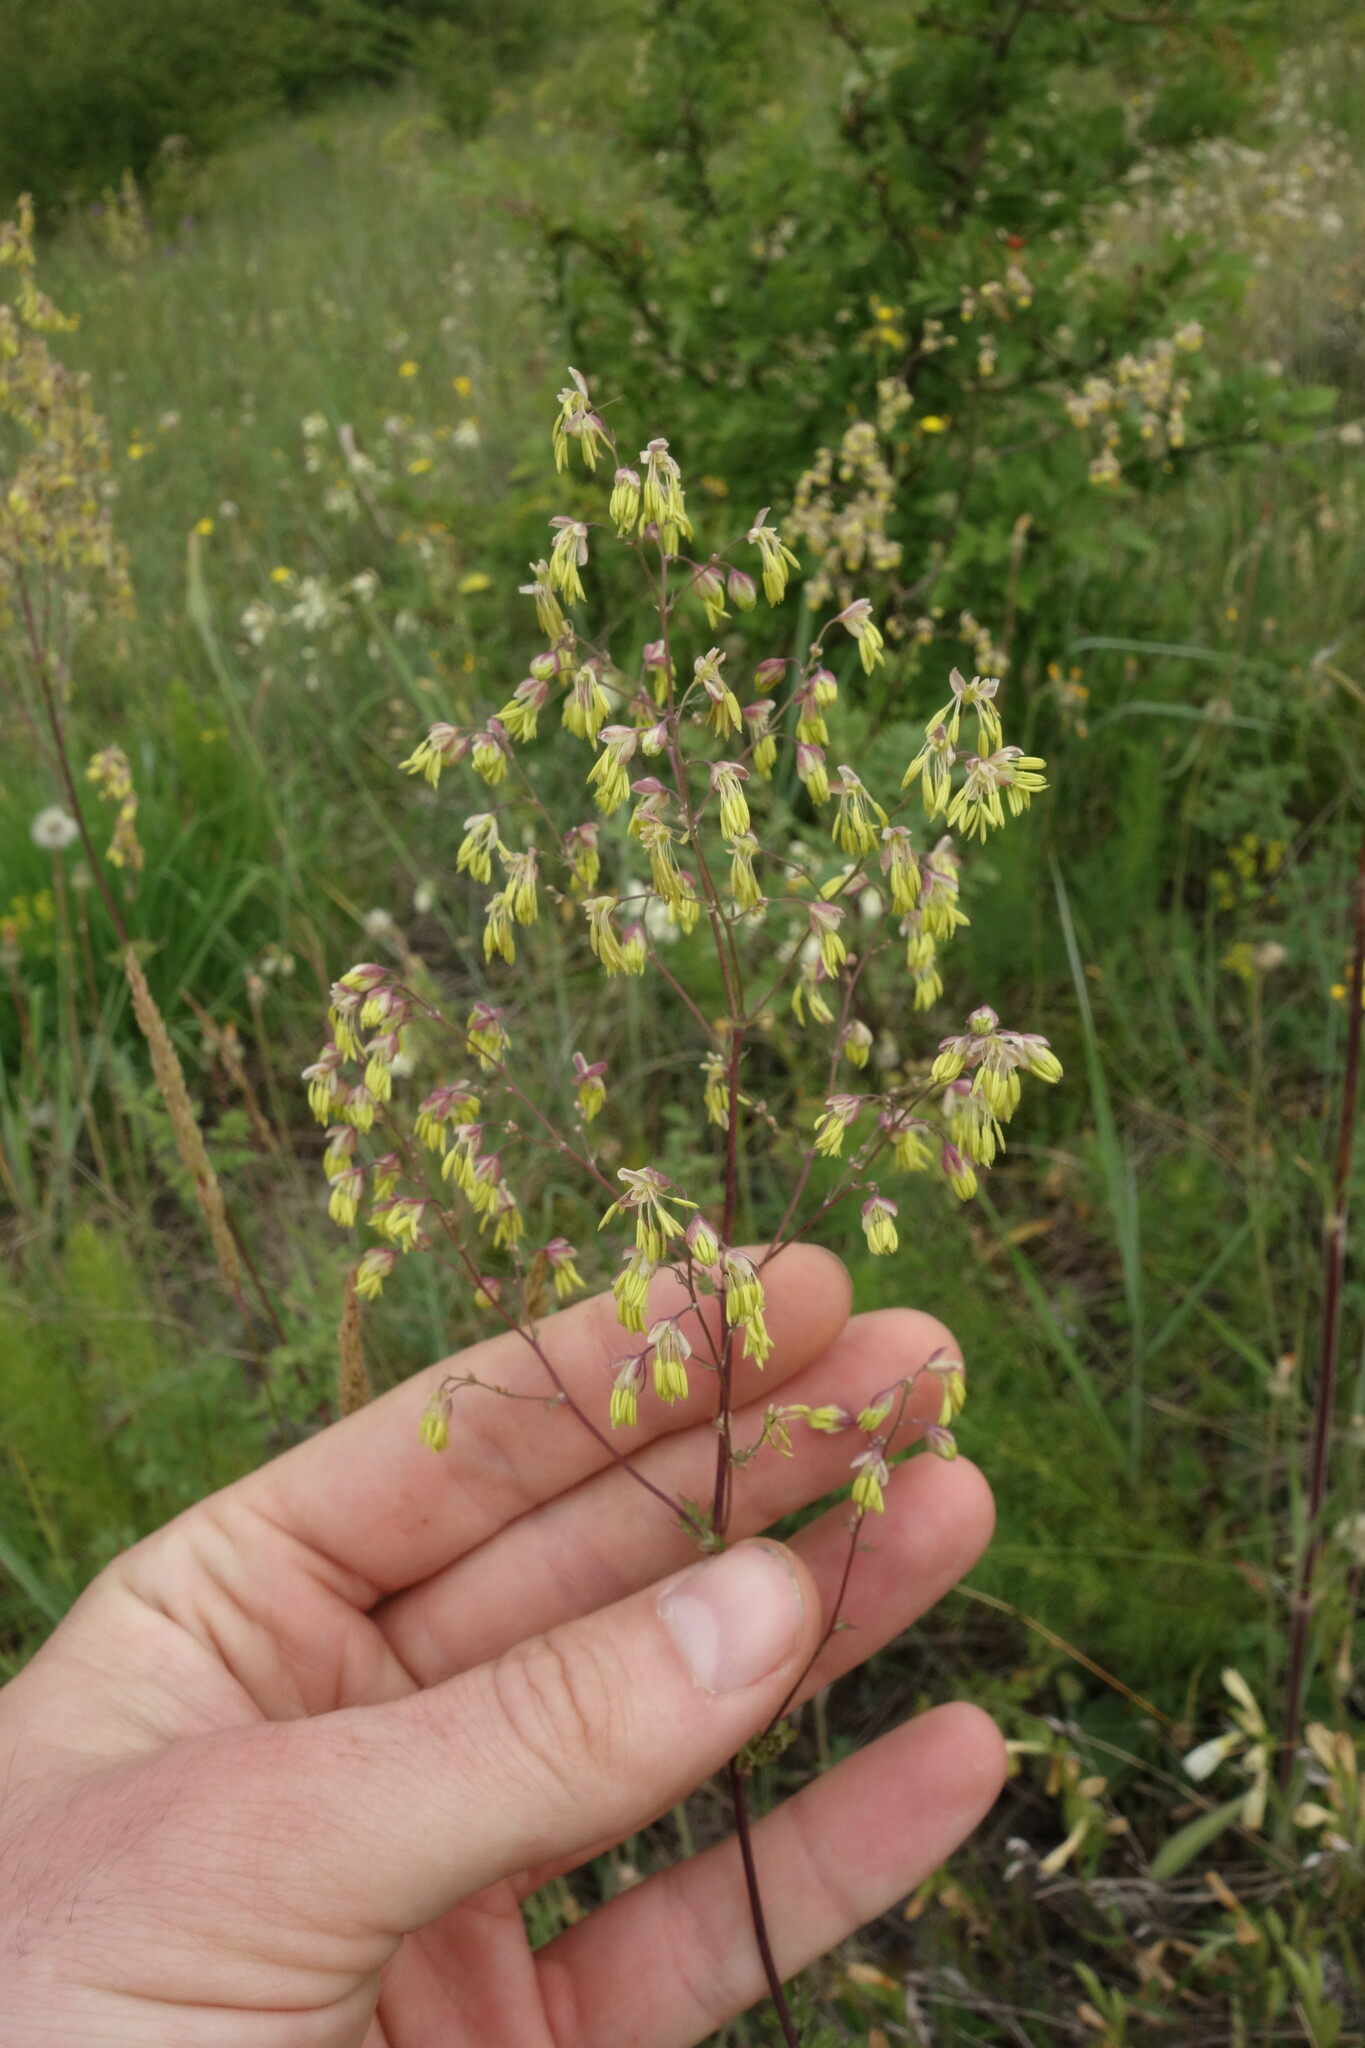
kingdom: Plantae
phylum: Tracheophyta
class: Magnoliopsida
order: Ranunculales
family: Ranunculaceae
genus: Thalictrum
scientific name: Thalictrum minus
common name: Lesser meadow-rue
